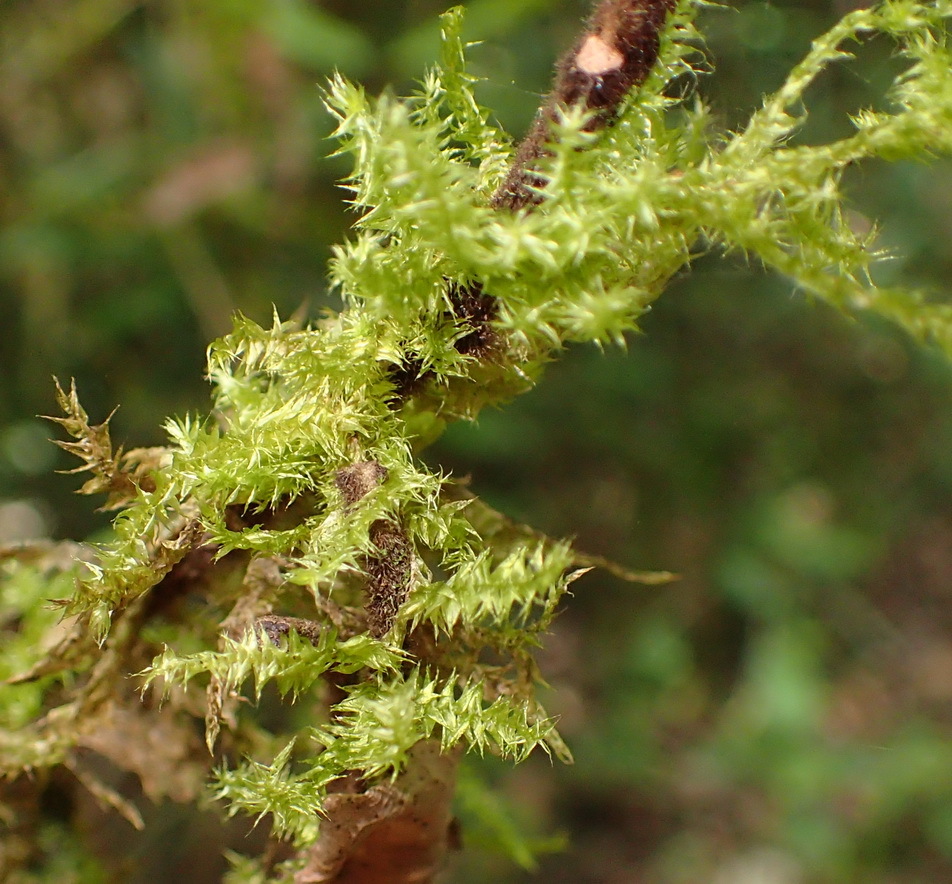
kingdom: Plantae
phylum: Bryophyta
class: Bryopsida
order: Hypnales
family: Meteoriaceae
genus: Aerobryopsis
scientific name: Aerobryopsis capensis
